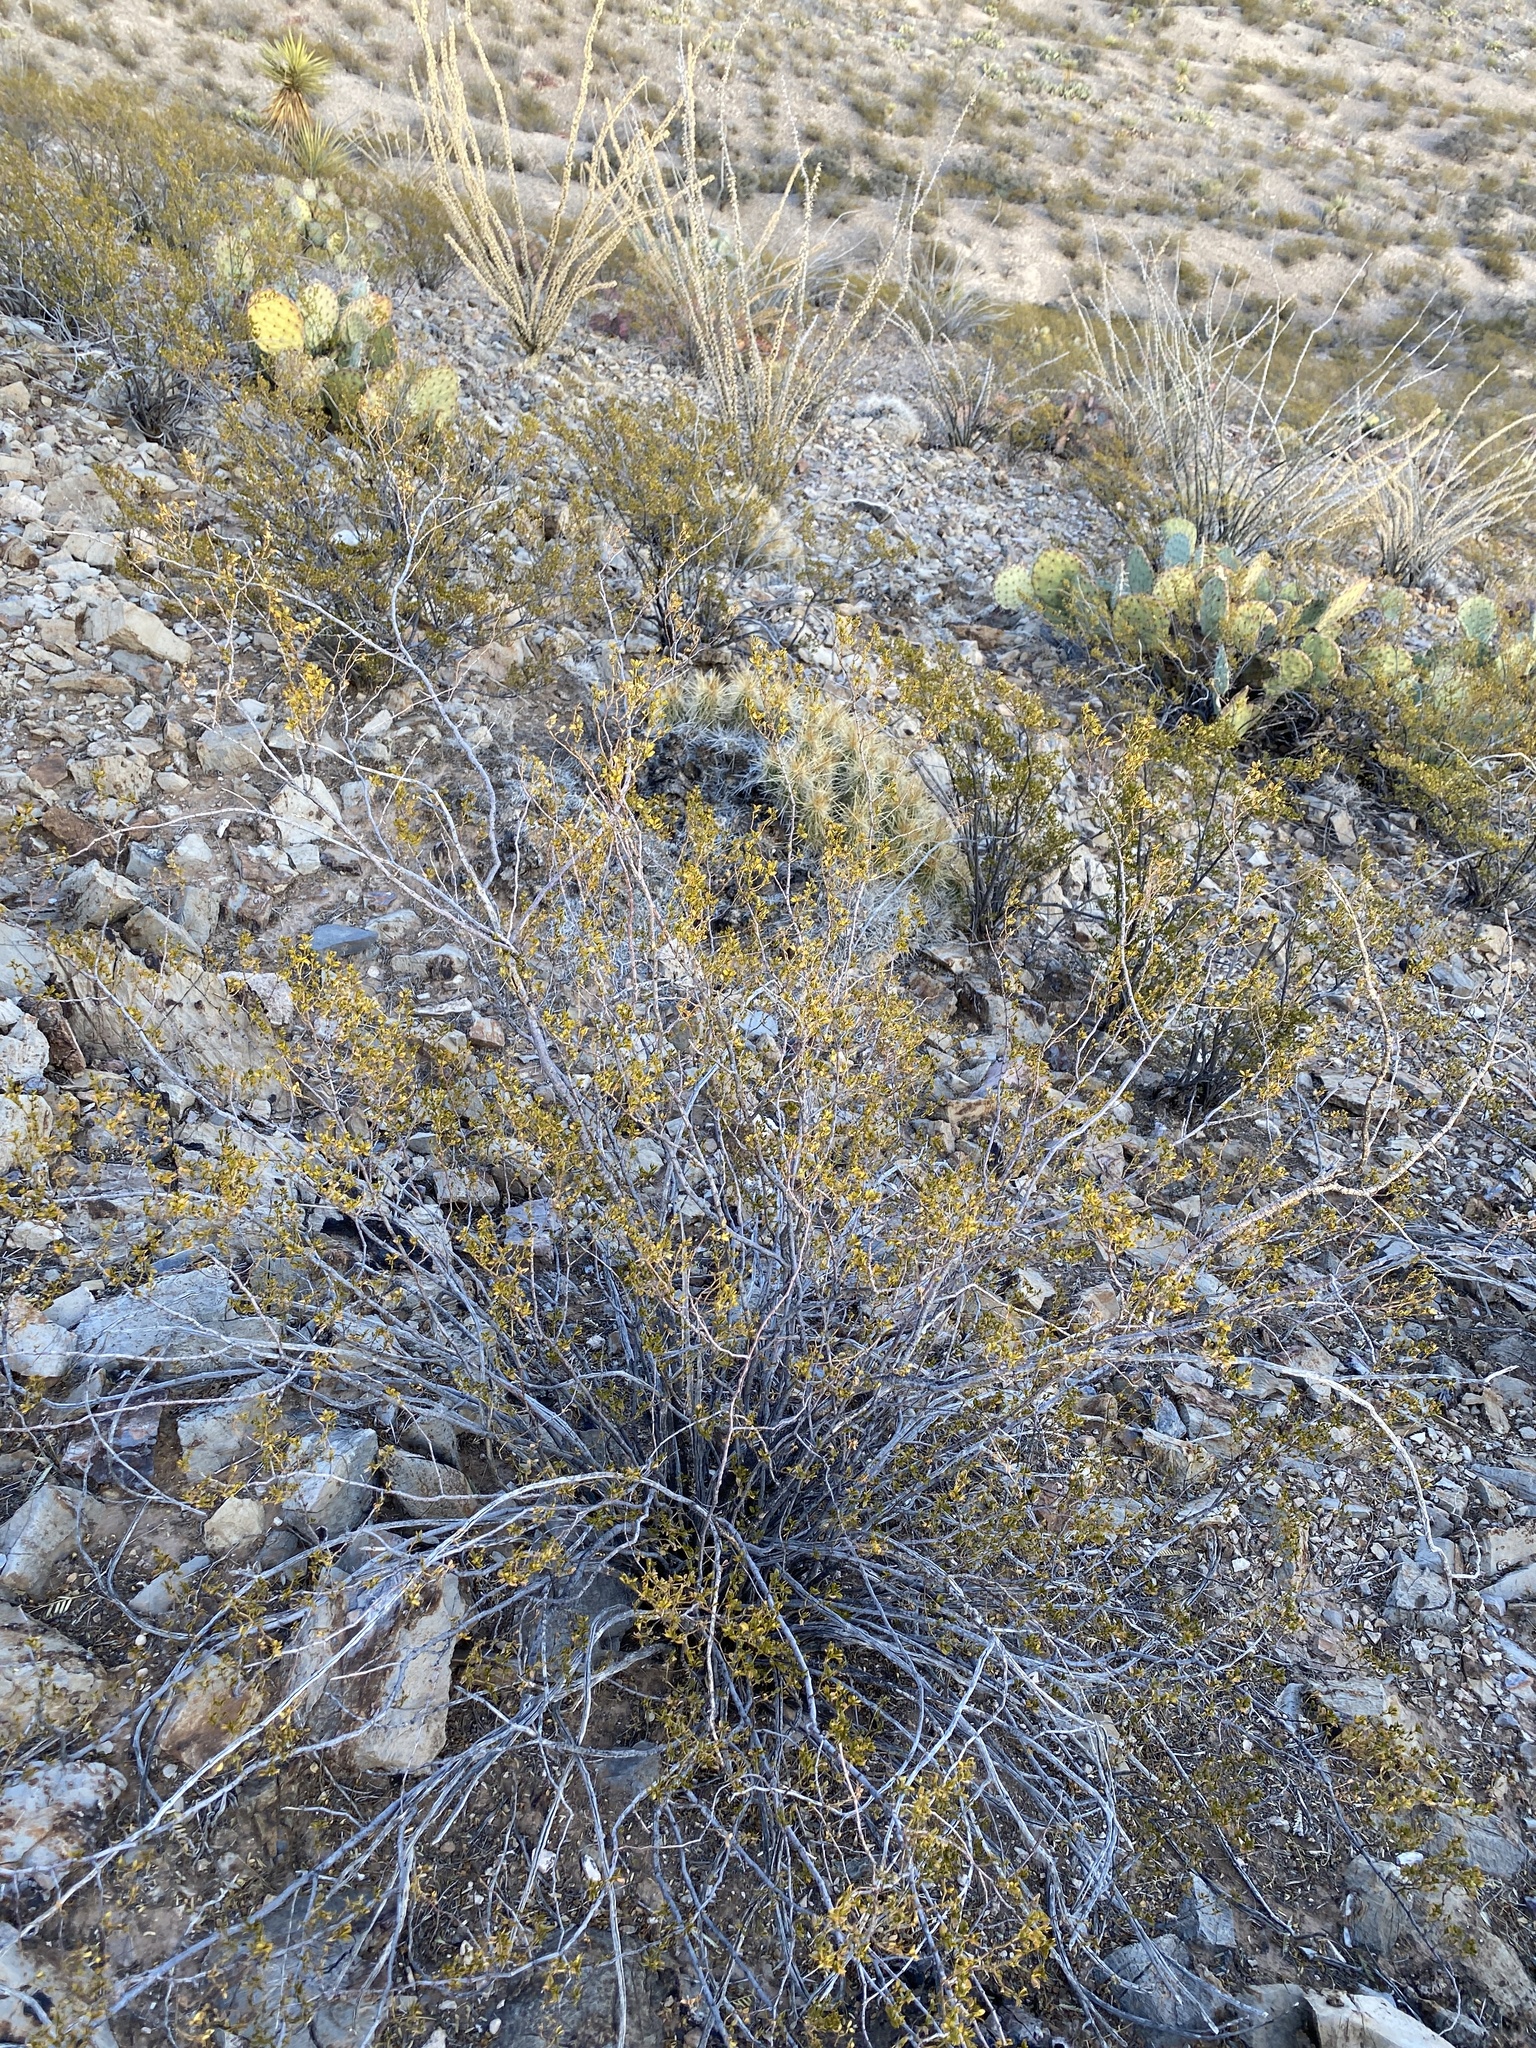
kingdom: Plantae
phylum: Tracheophyta
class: Magnoliopsida
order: Zygophyllales
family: Zygophyllaceae
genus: Larrea
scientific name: Larrea tridentata
